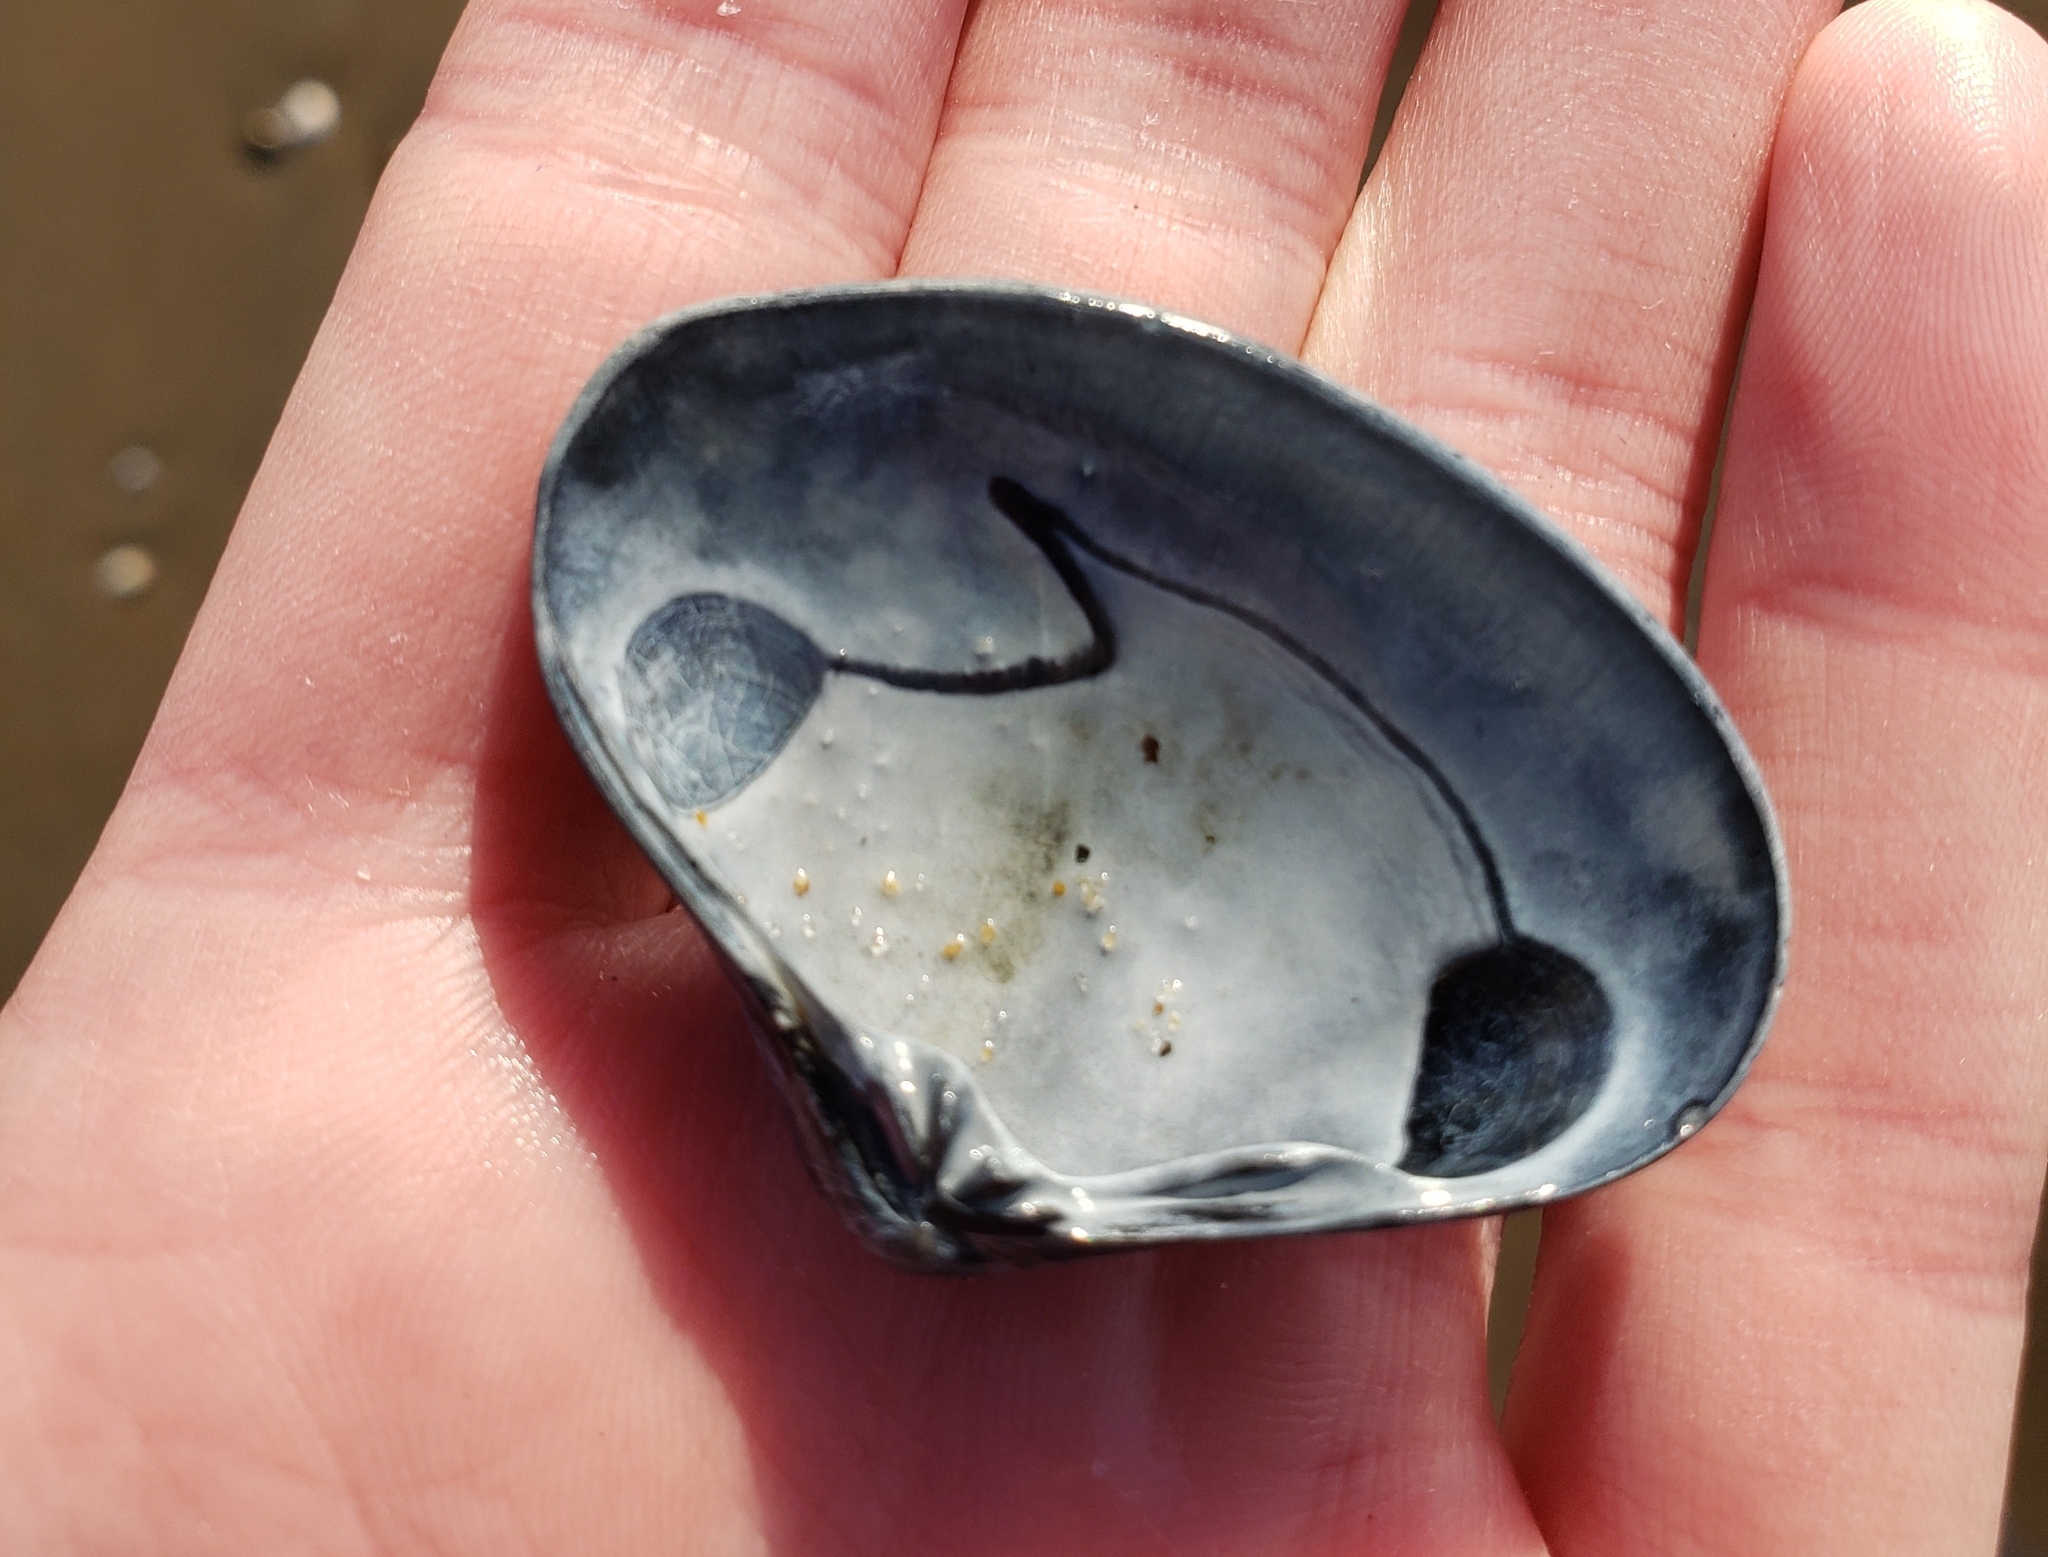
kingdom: Animalia
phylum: Mollusca
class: Bivalvia
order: Venerida
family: Veneridae
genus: Tivela
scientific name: Tivela stultorum
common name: Pismo clam
